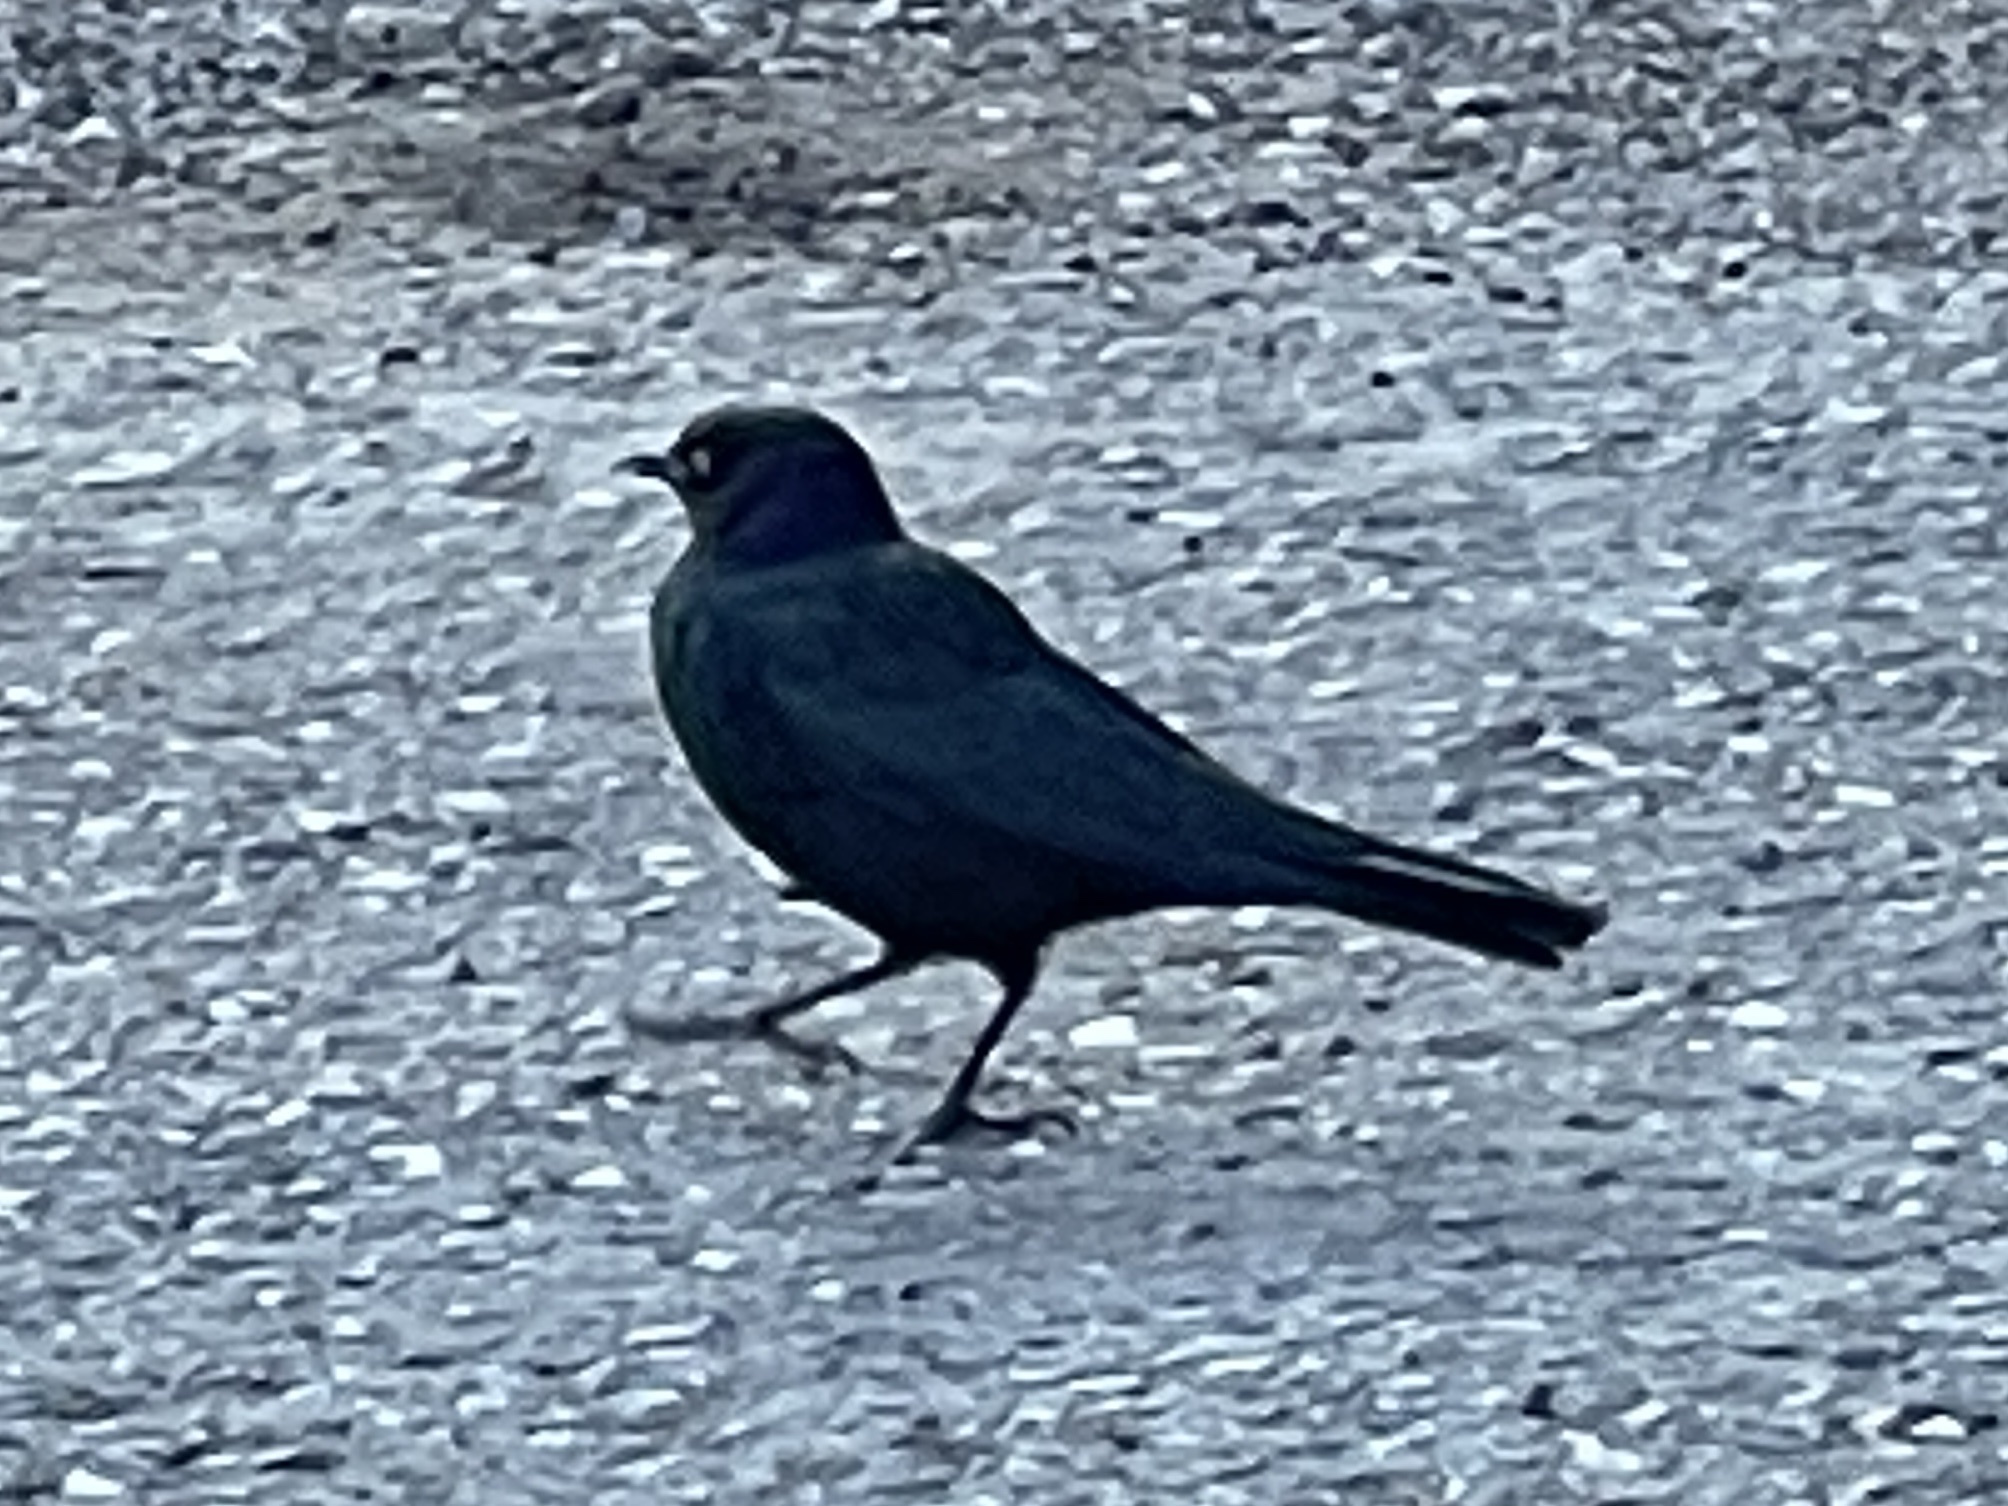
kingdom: Animalia
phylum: Chordata
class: Aves
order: Passeriformes
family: Icteridae
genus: Euphagus
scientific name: Euphagus cyanocephalus
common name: Brewer's blackbird
